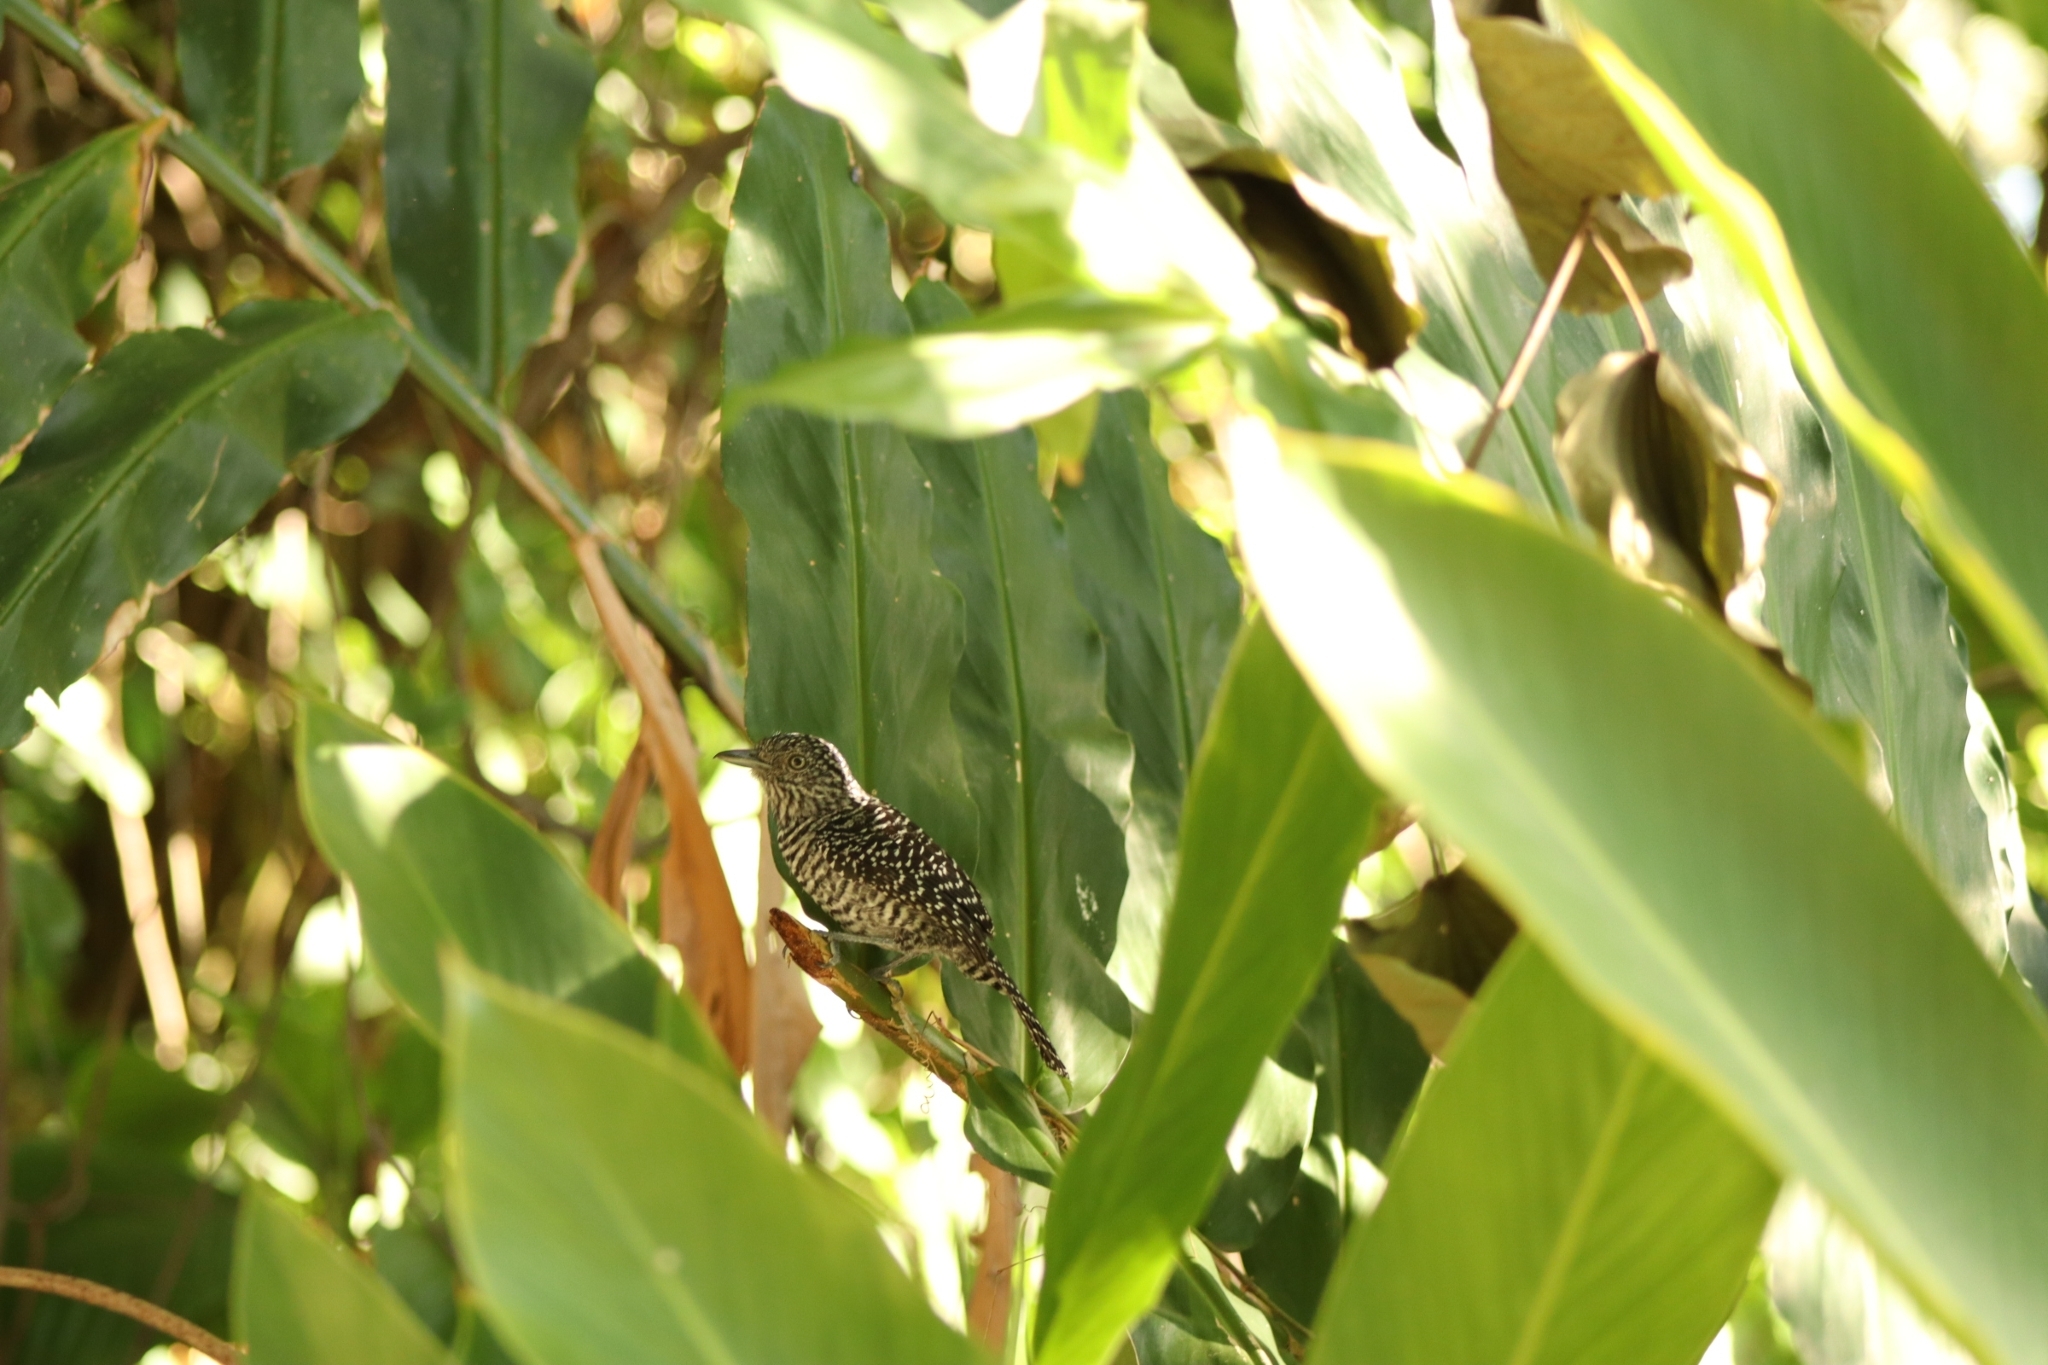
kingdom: Animalia
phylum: Chordata
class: Aves
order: Passeriformes
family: Thamnophilidae
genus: Thamnophilus
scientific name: Thamnophilus multistriatus
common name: Bar-crested antshrike
